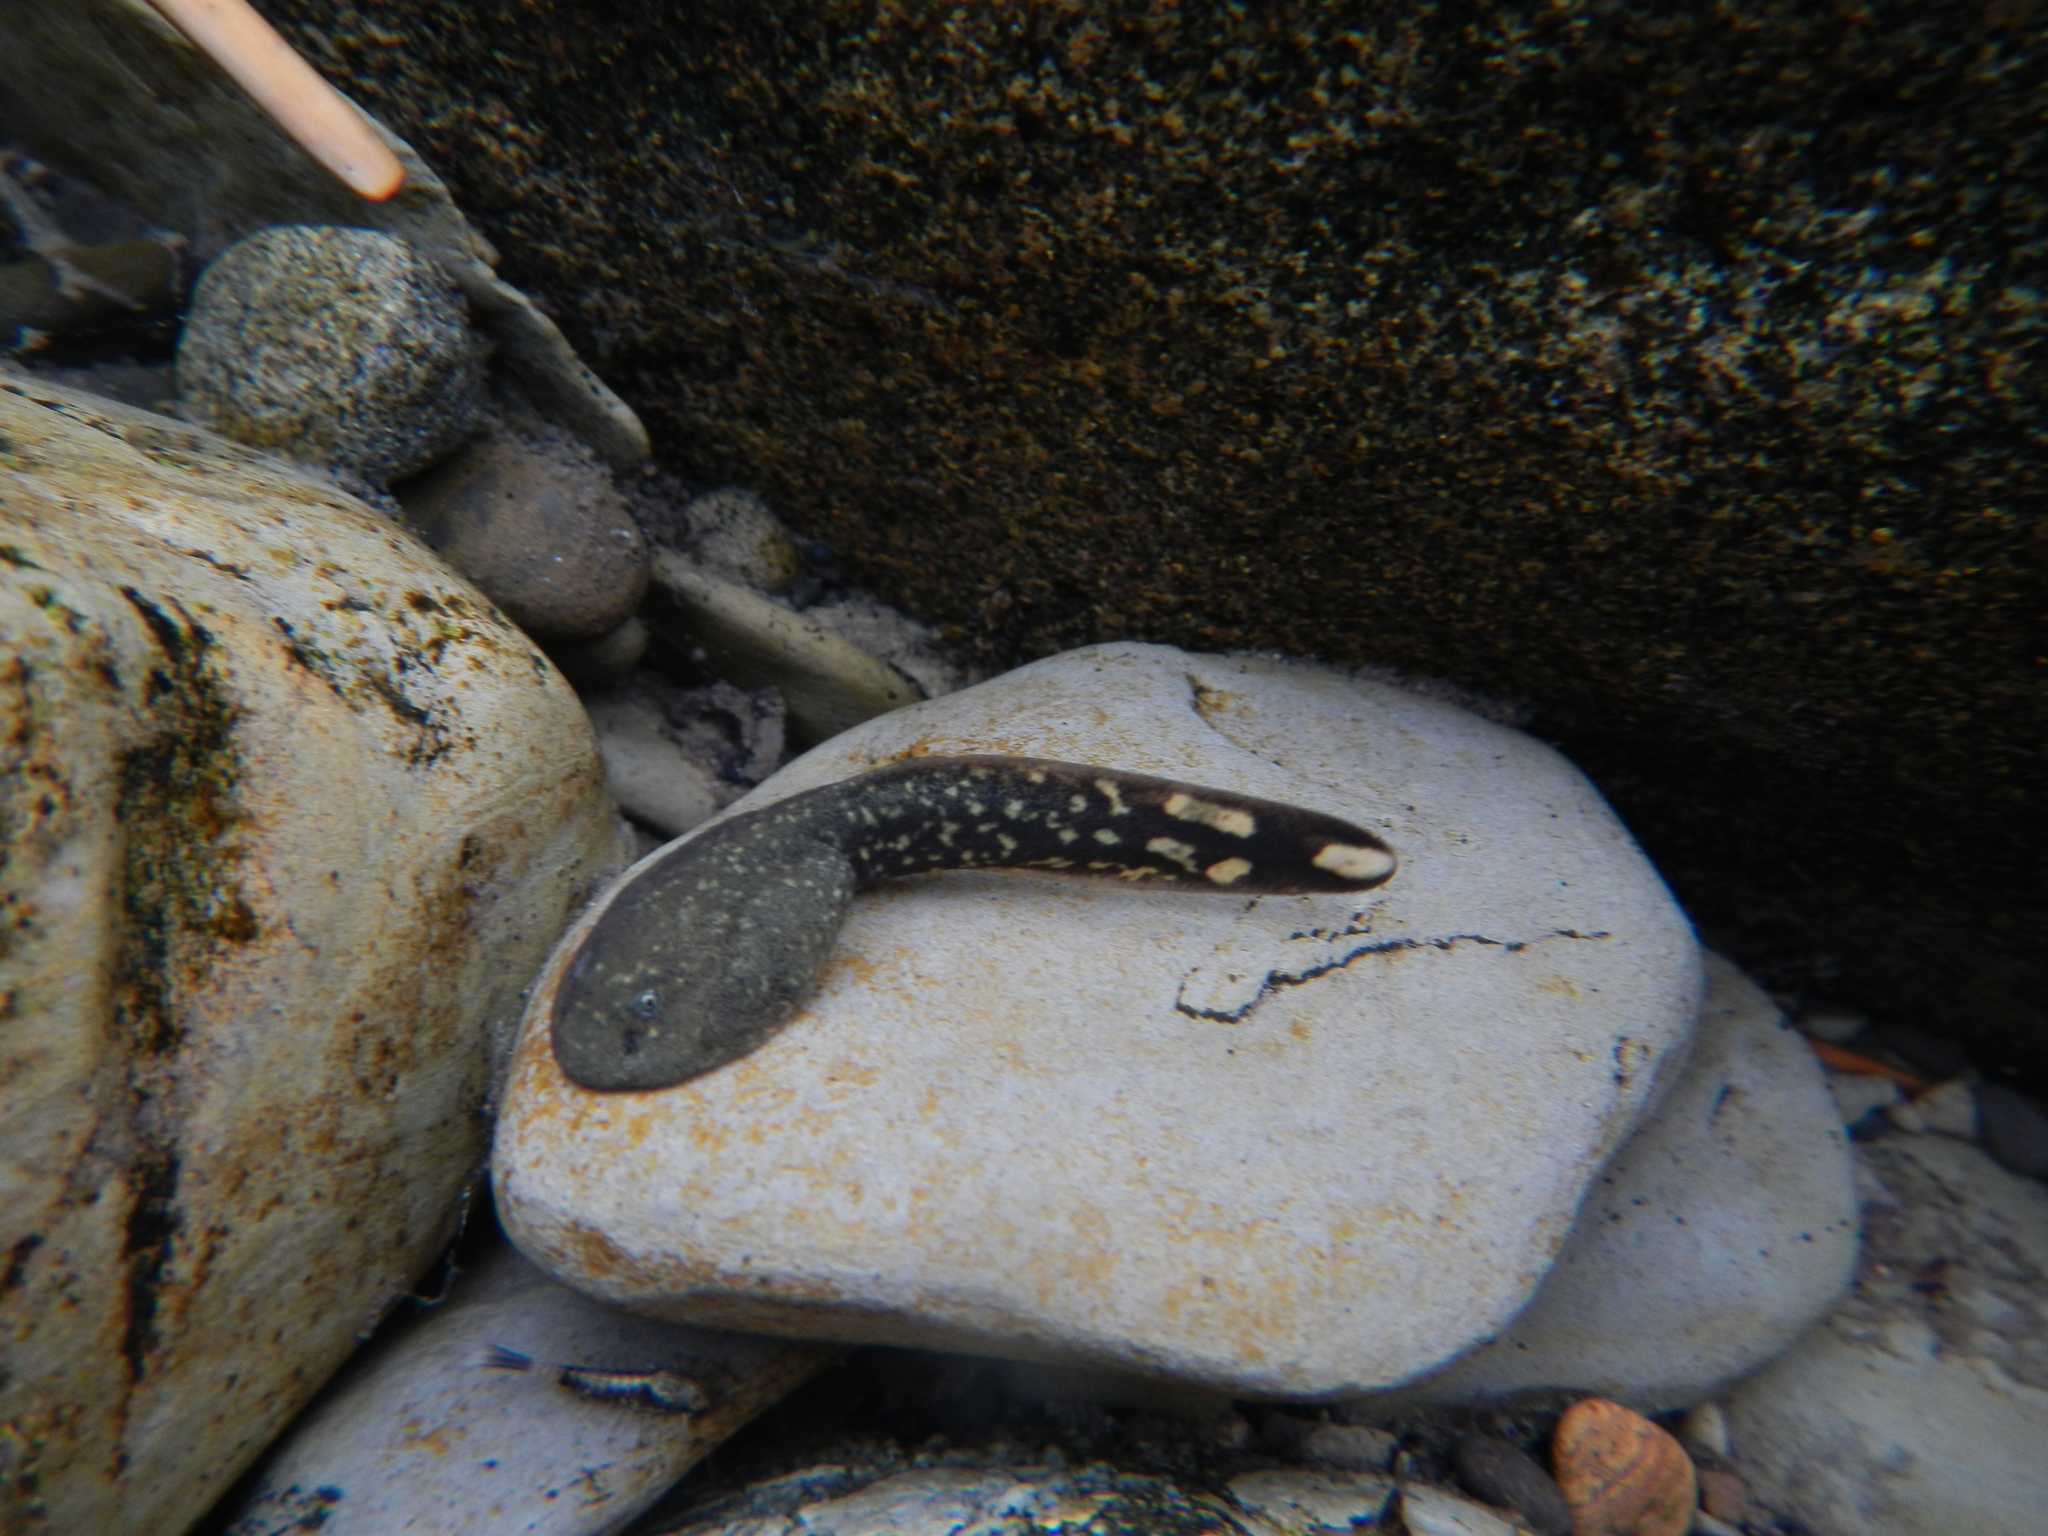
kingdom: Animalia
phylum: Chordata
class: Amphibia
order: Anura
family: Ascaphidae
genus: Ascaphus
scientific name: Ascaphus montanus
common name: Rocky mountain tailed frog
